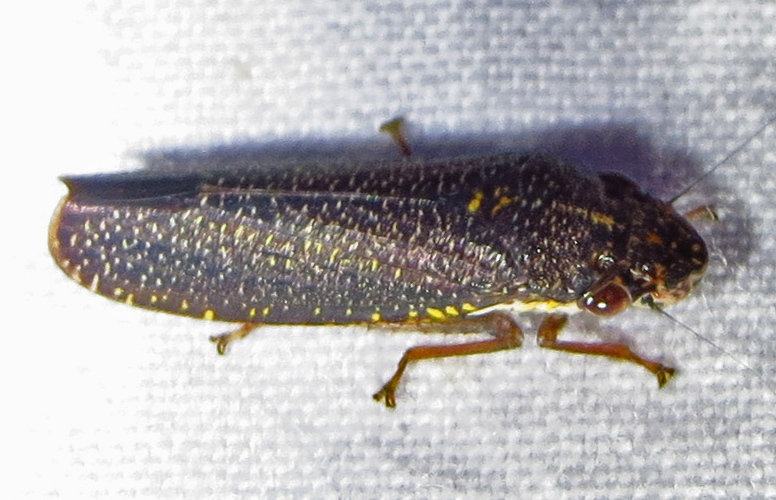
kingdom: Animalia
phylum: Arthropoda
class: Insecta
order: Hemiptera
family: Cicadellidae
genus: Paraulacizes
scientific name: Paraulacizes irrorata
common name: Speckled sharpshooter
